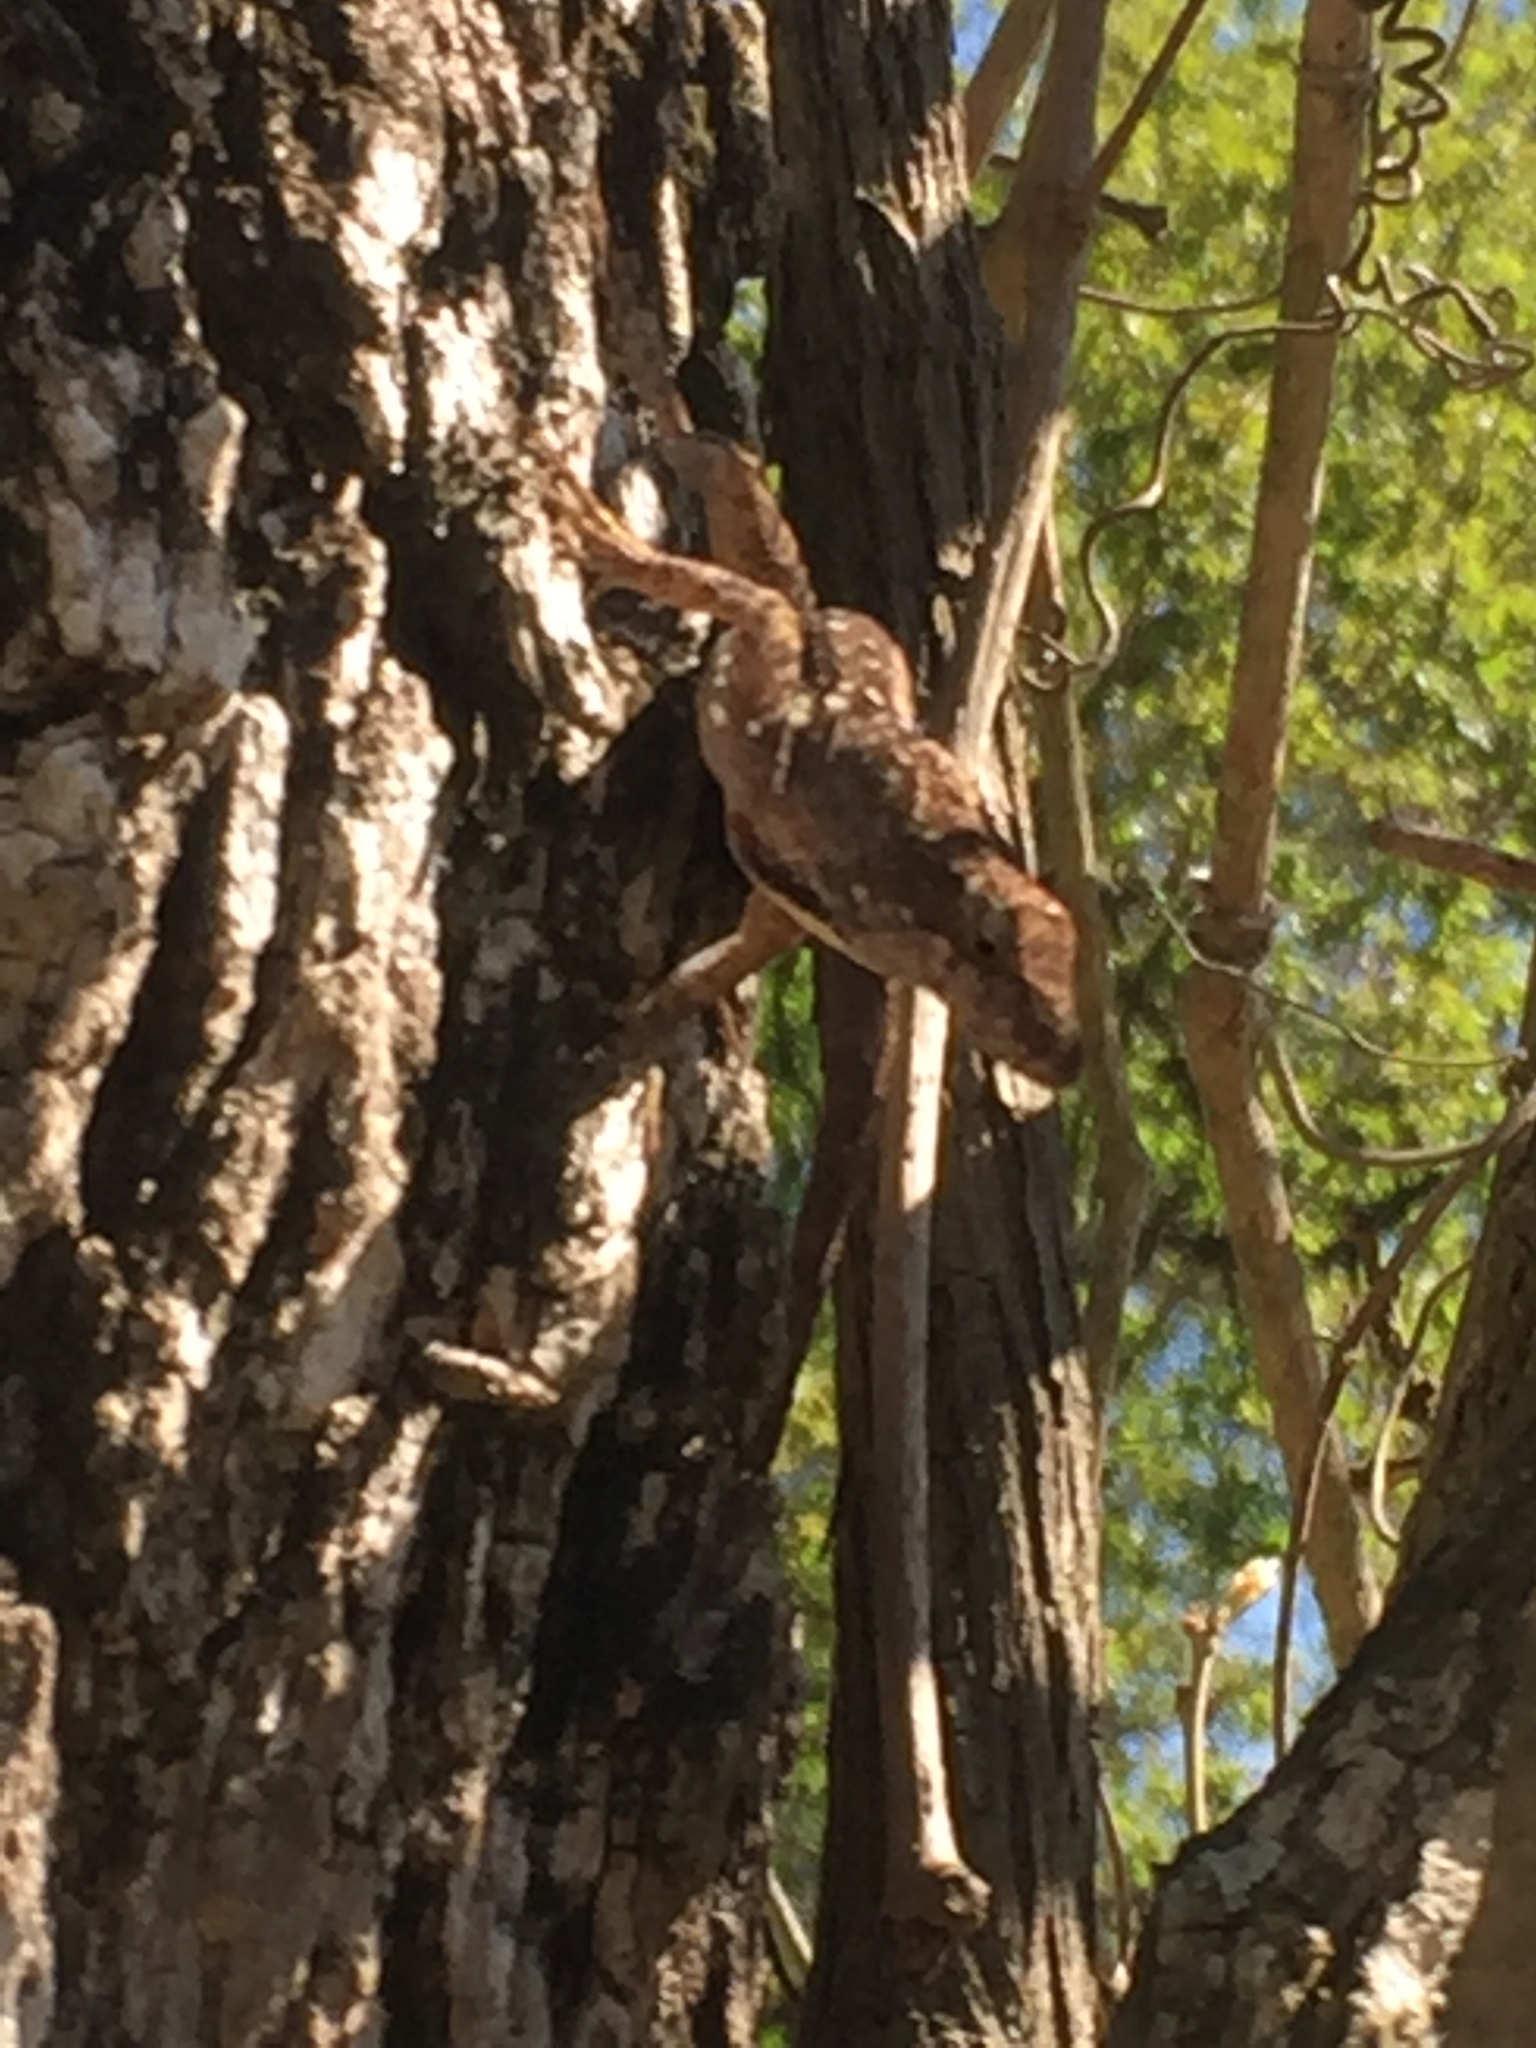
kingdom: Animalia
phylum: Chordata
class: Squamata
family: Dactyloidae
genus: Anolis
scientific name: Anolis sagrei
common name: Brown anole
